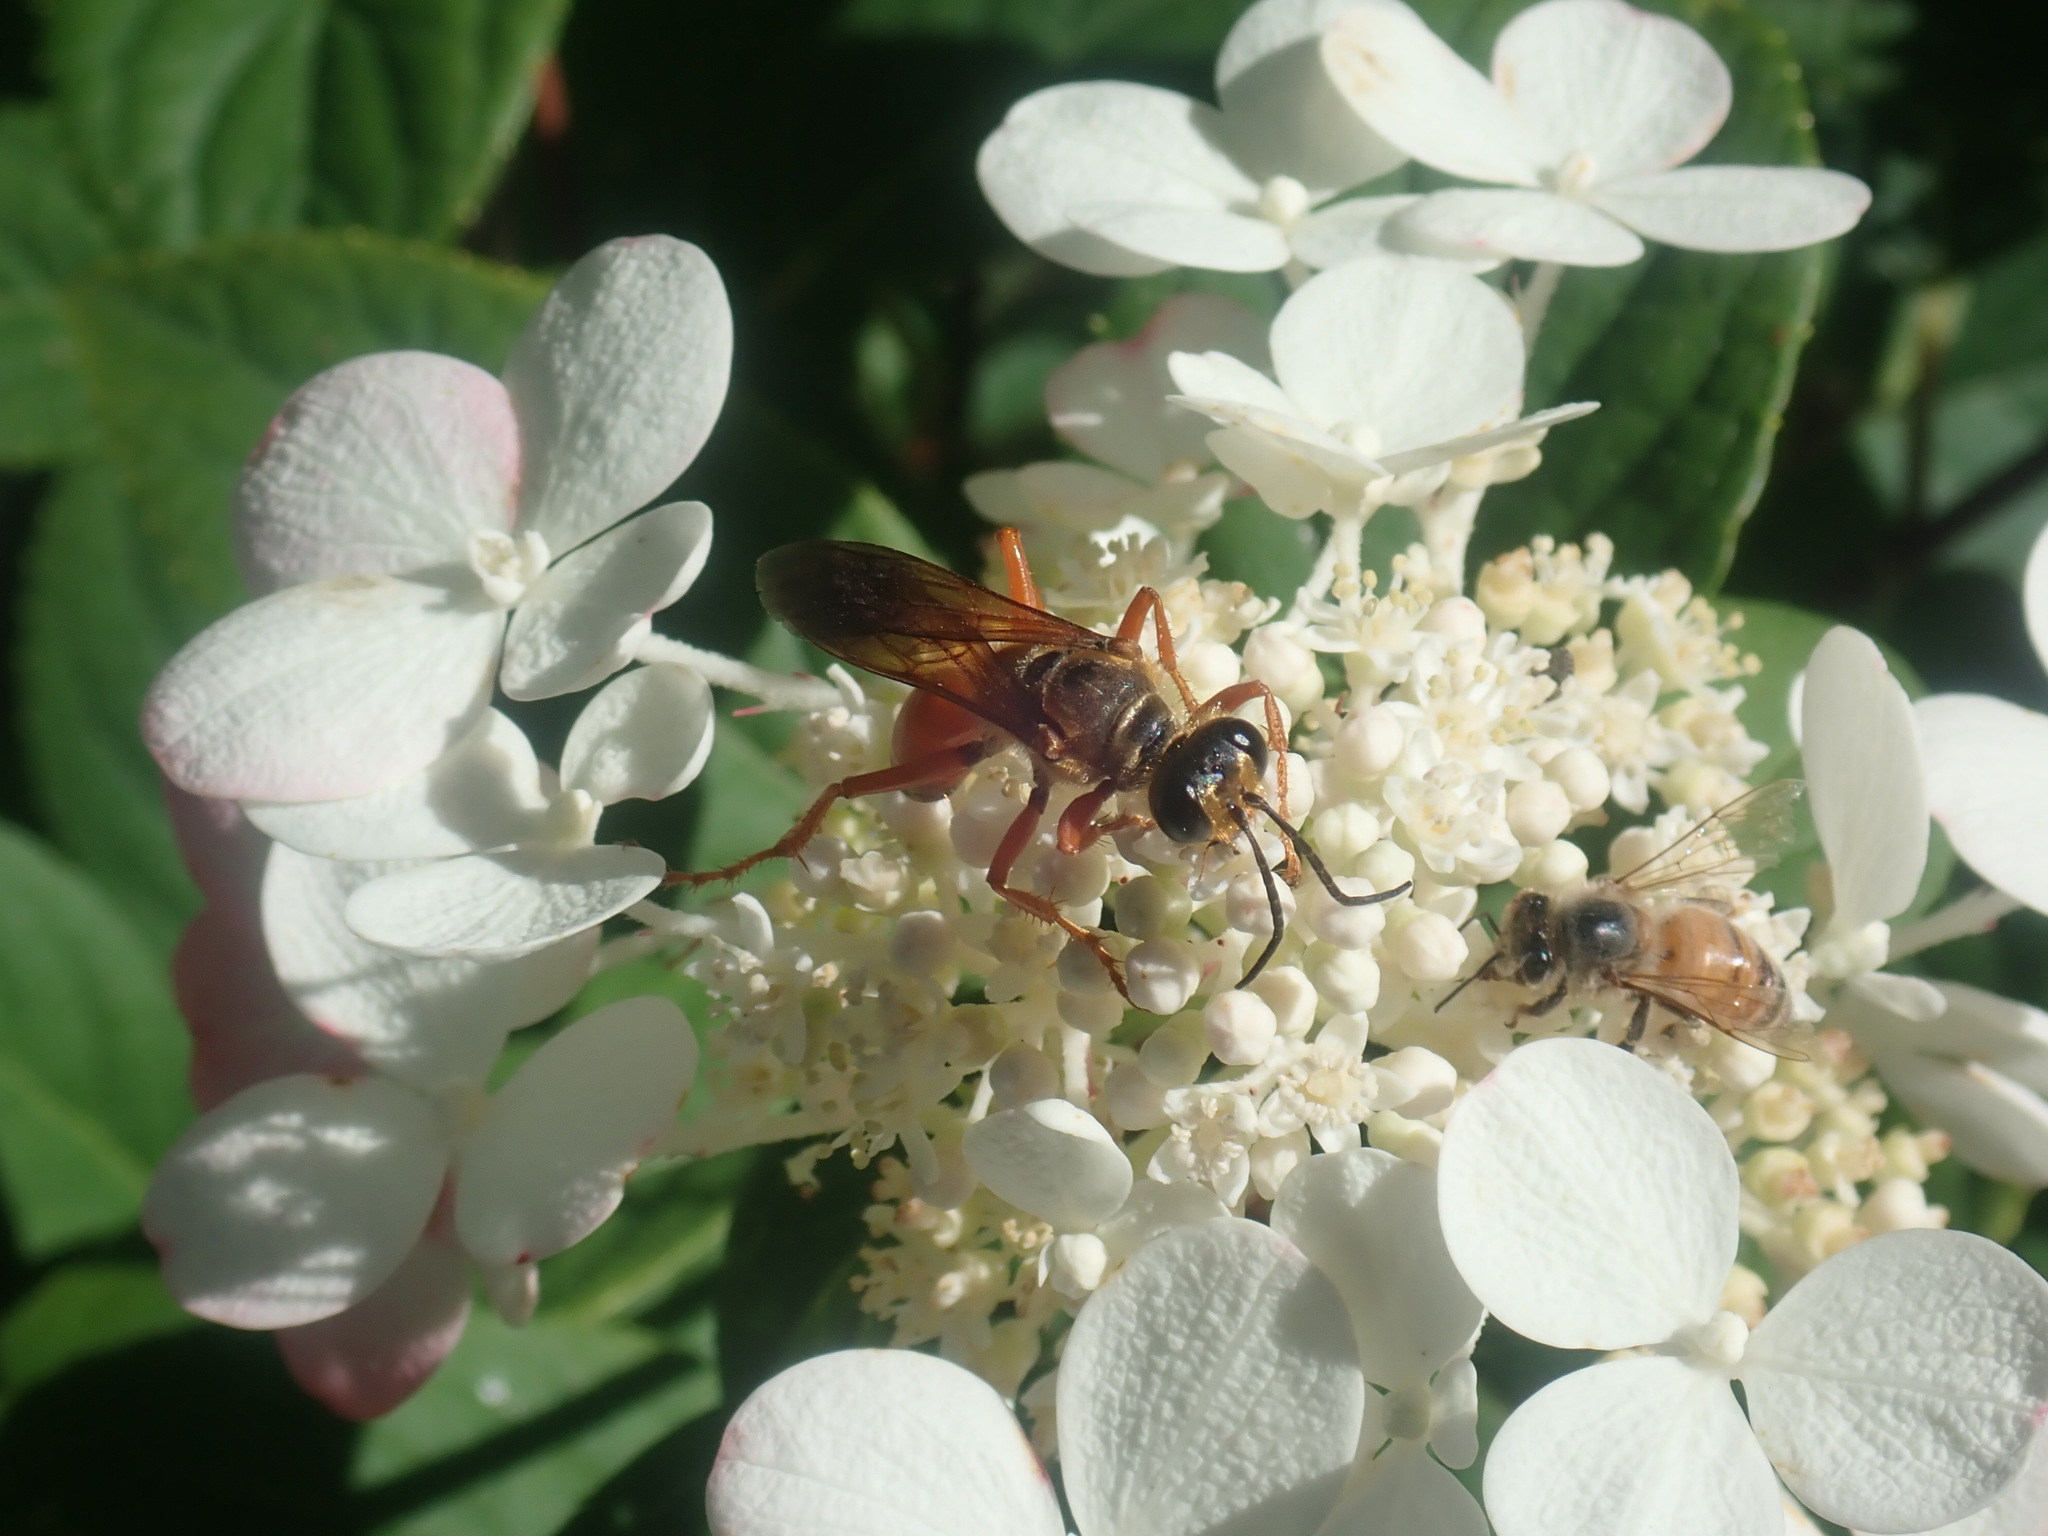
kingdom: Animalia
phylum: Arthropoda
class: Insecta
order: Hymenoptera
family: Sphecidae
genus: Sphex
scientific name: Sphex ichneumoneus
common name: Great golden digger wasp
